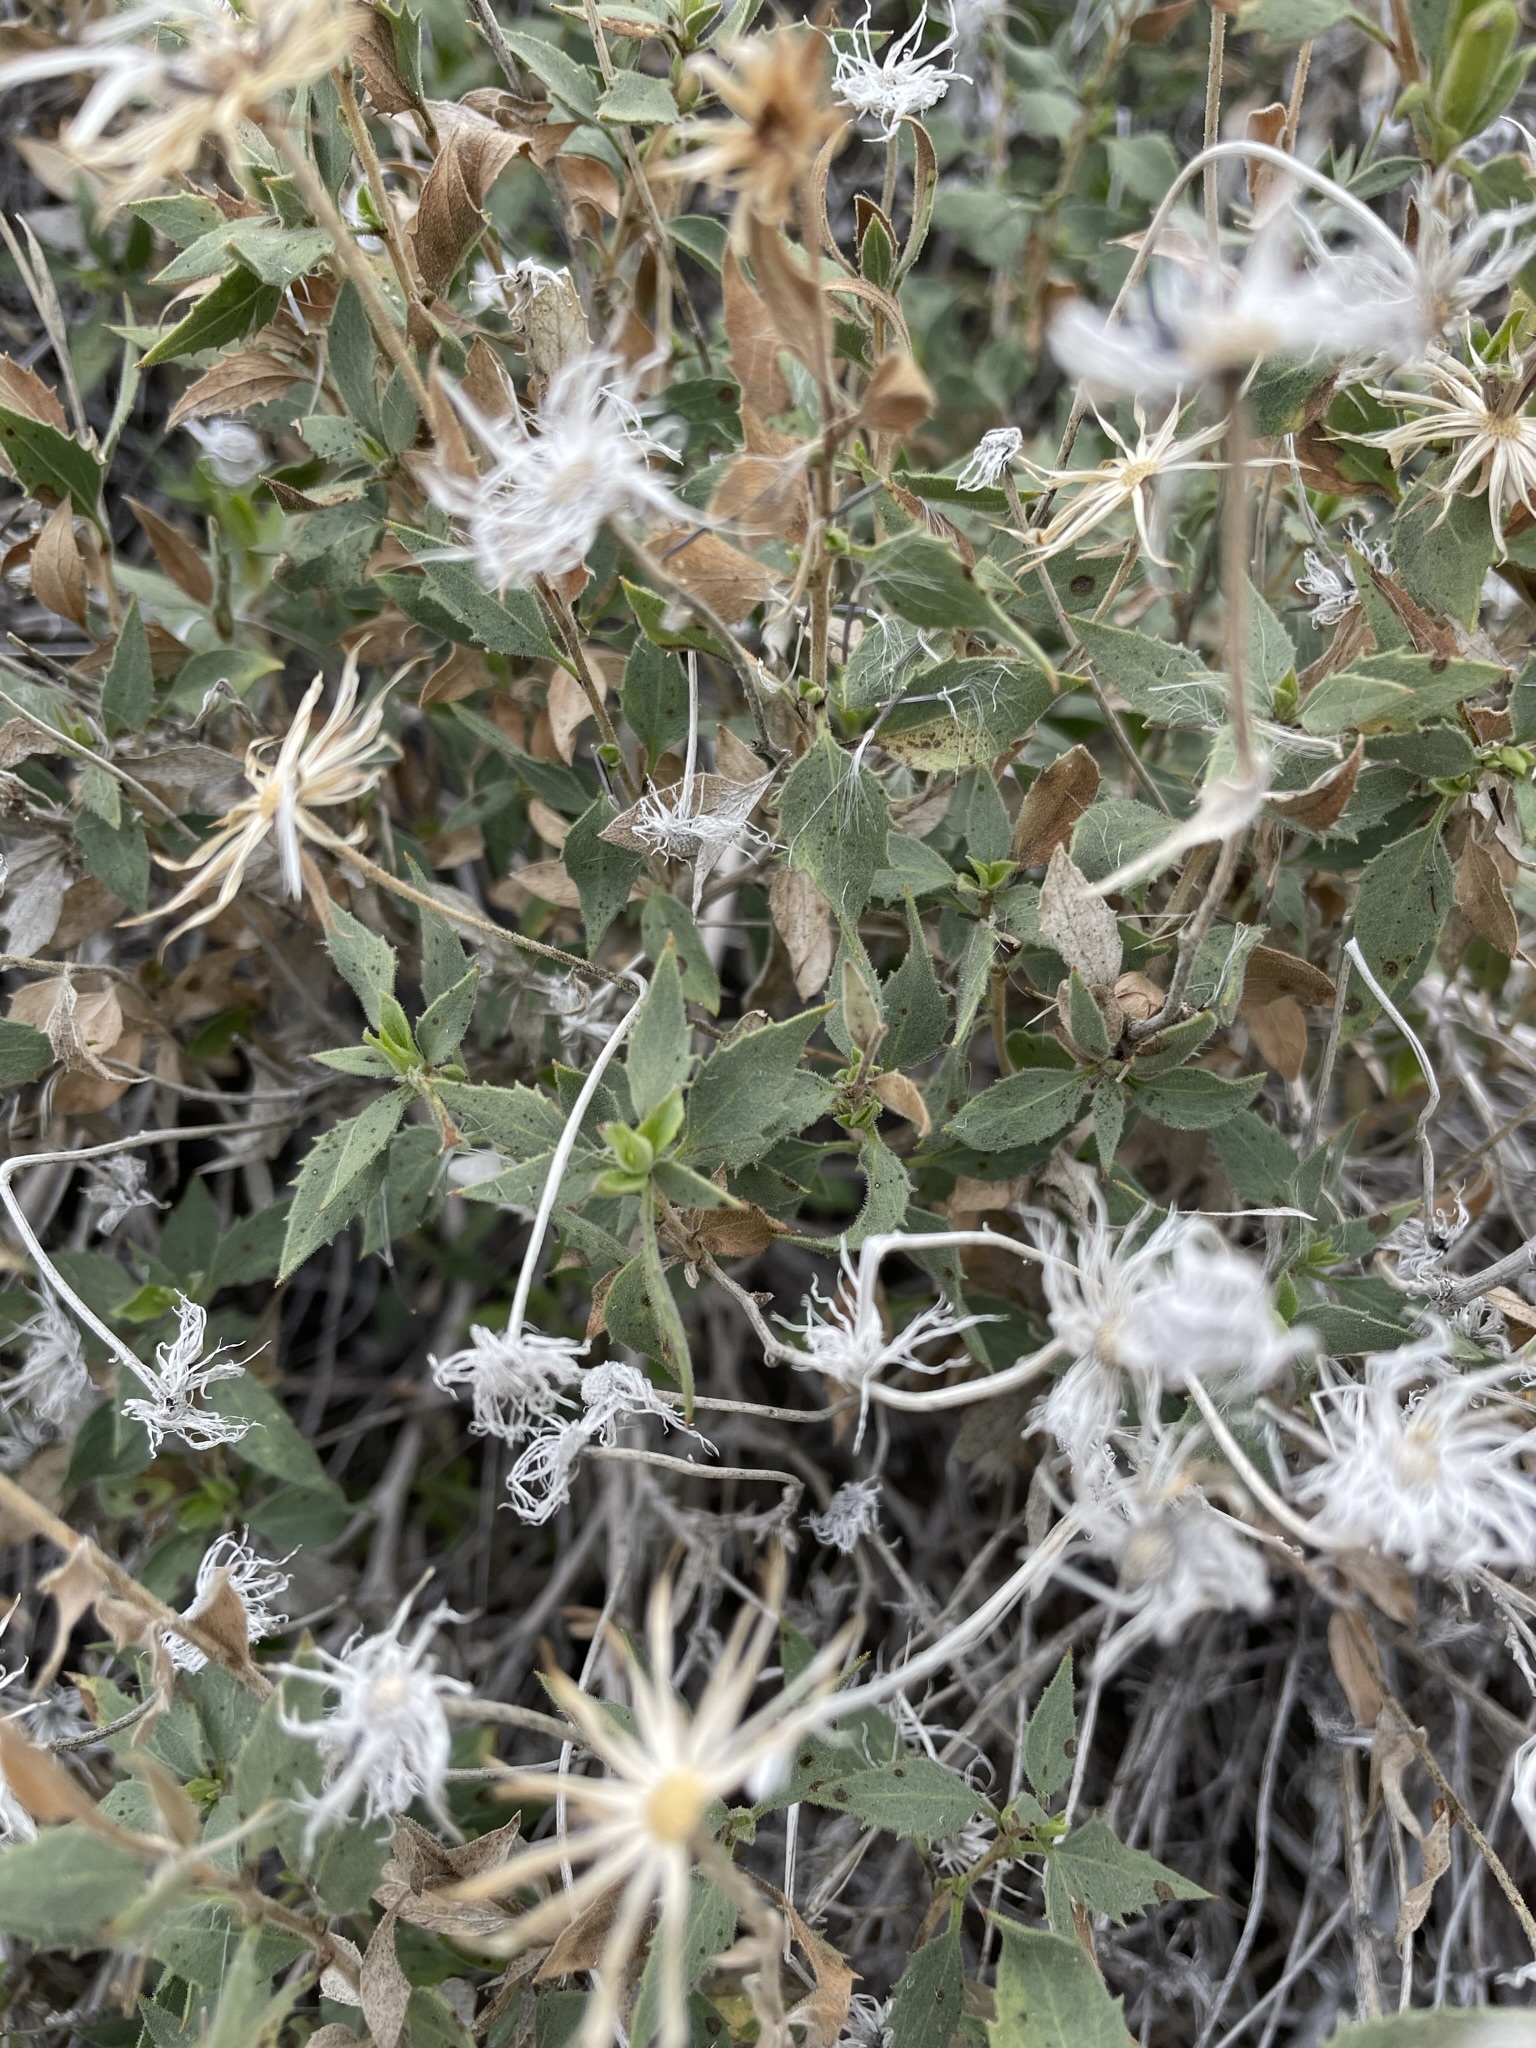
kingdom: Plantae
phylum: Tracheophyta
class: Magnoliopsida
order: Asterales
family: Asteraceae
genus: Brickellia
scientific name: Brickellia atractyloides
